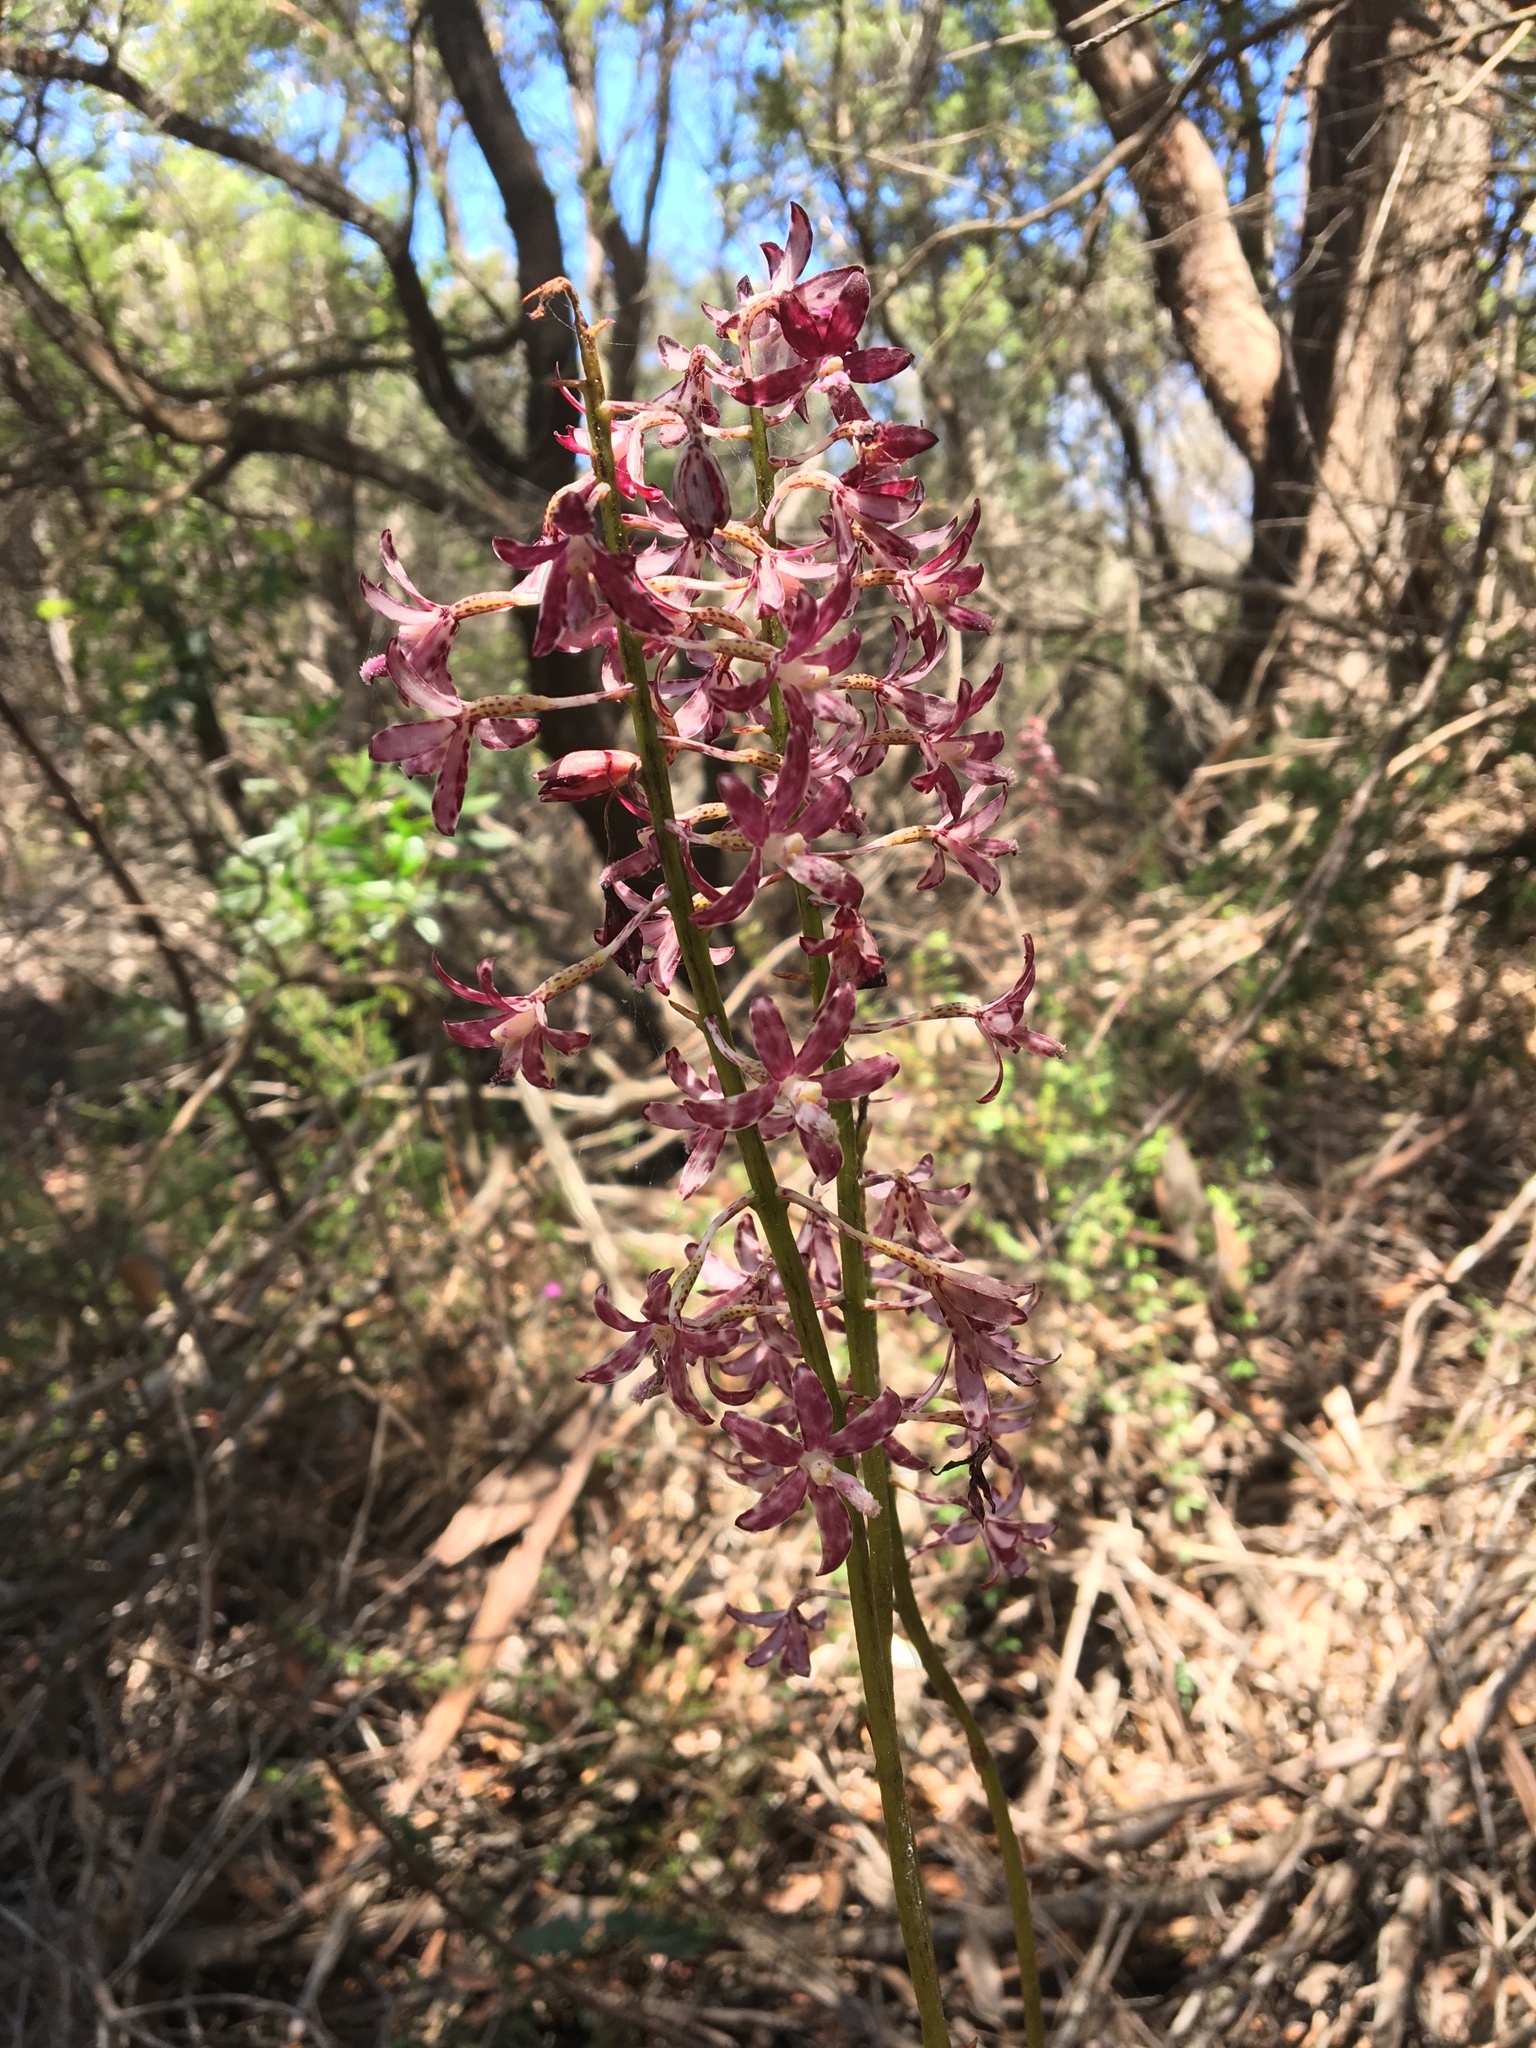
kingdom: Plantae
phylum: Tracheophyta
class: Liliopsida
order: Asparagales
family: Orchidaceae
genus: Dipodium
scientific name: Dipodium variegatum
